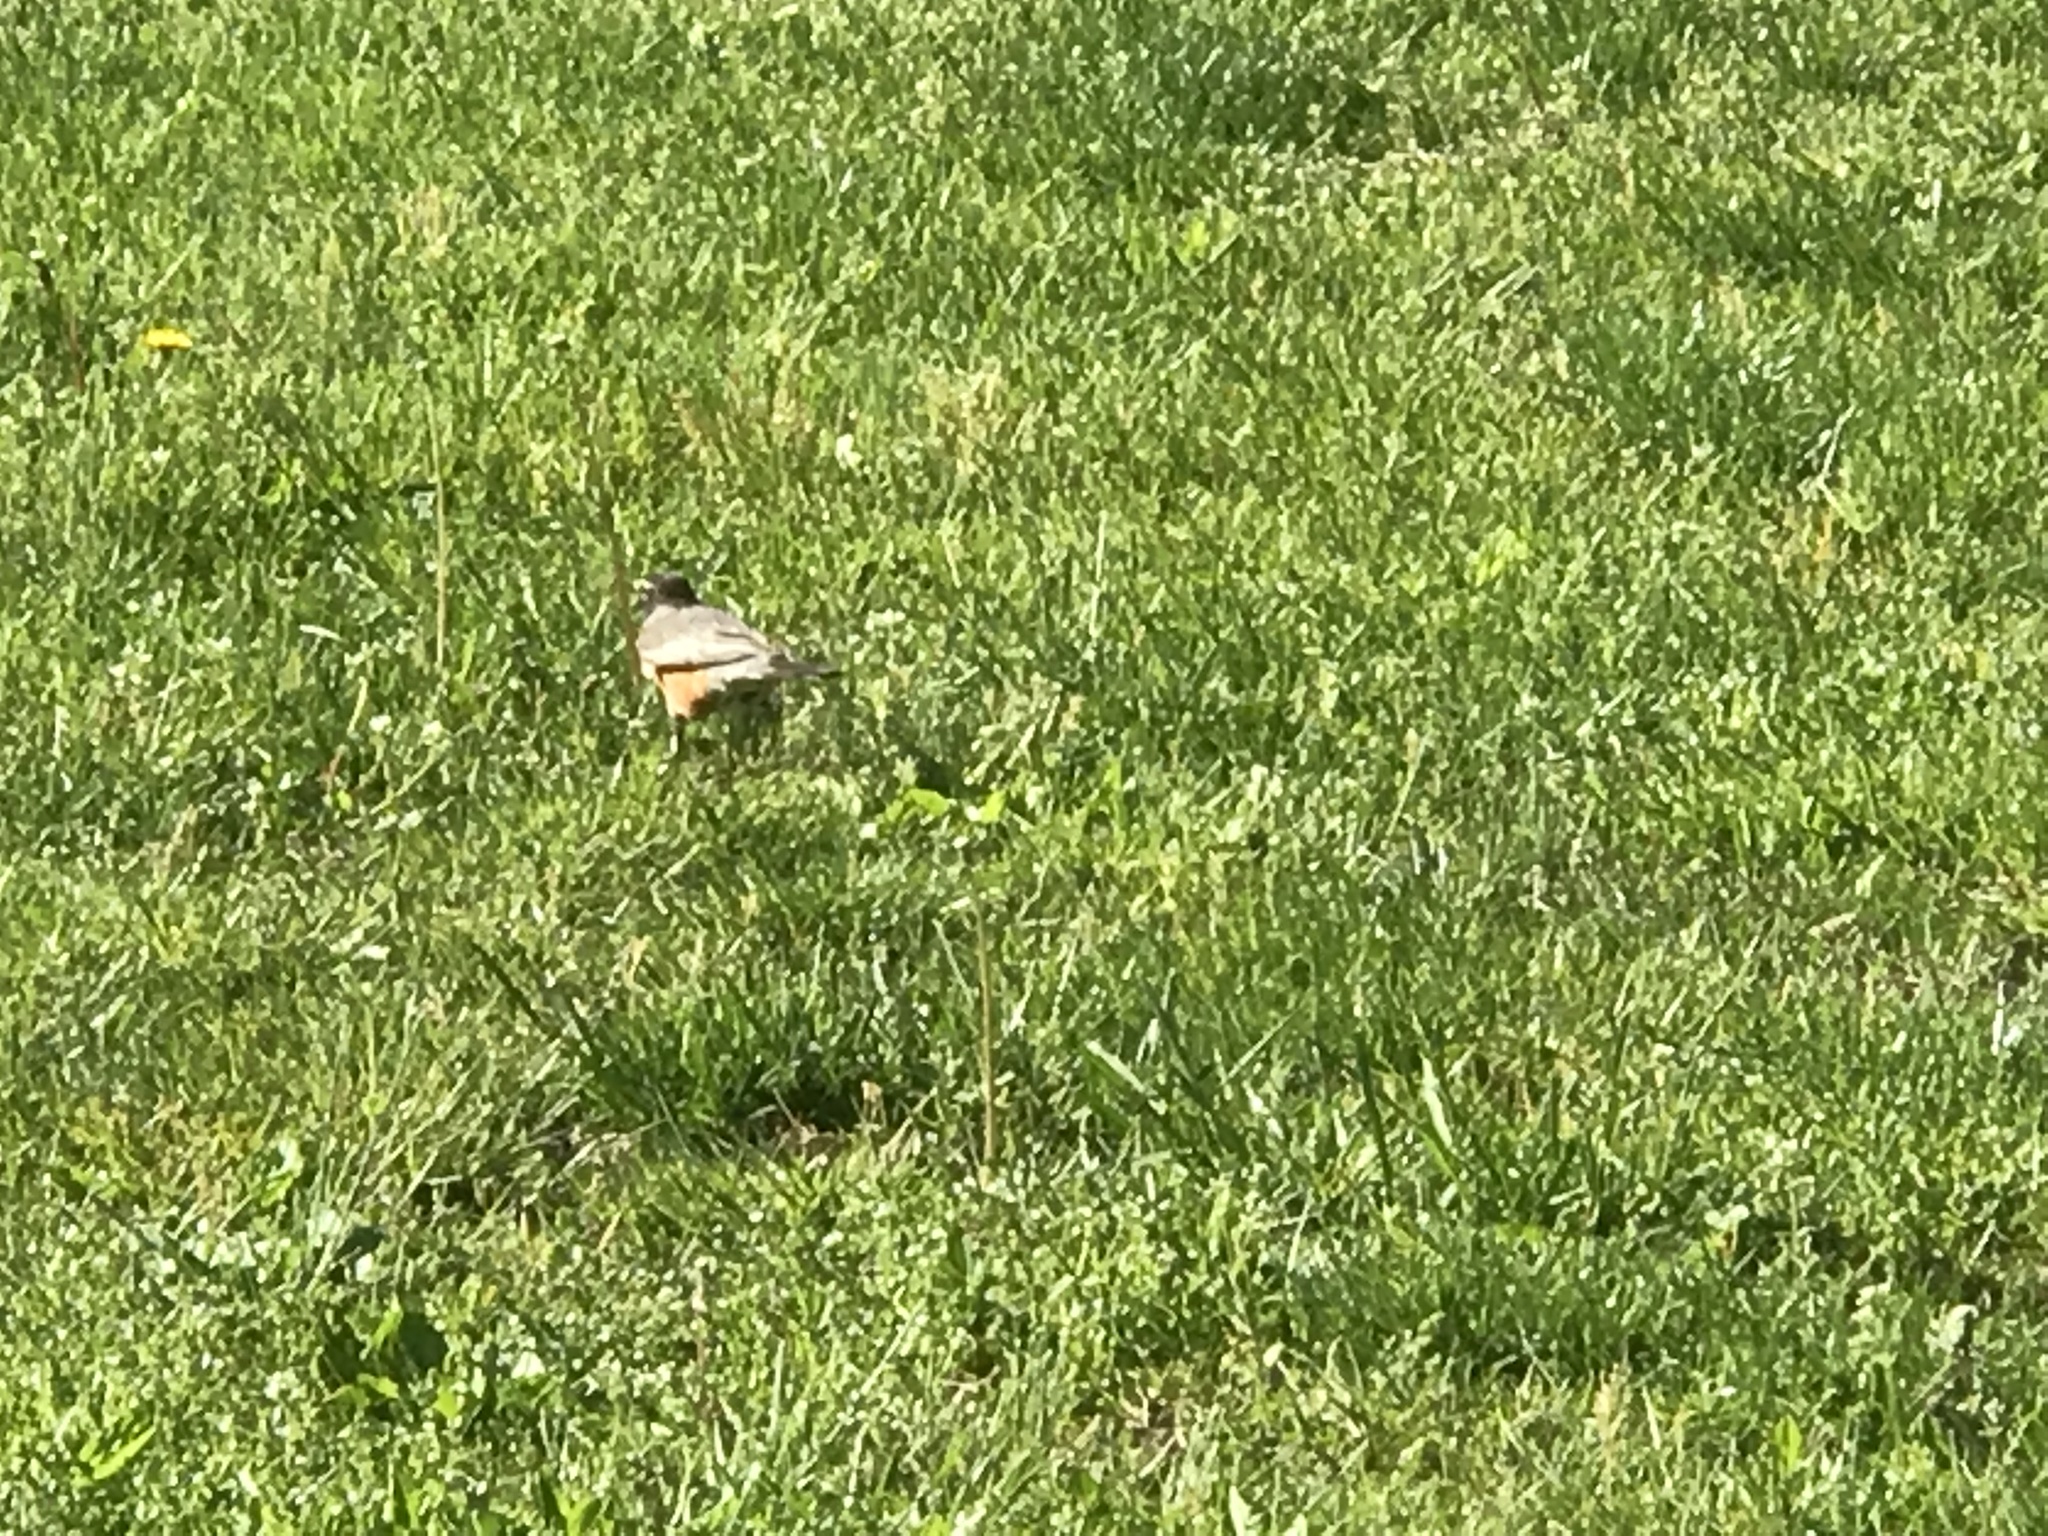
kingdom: Animalia
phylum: Chordata
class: Aves
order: Passeriformes
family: Turdidae
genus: Turdus
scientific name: Turdus migratorius
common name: American robin
